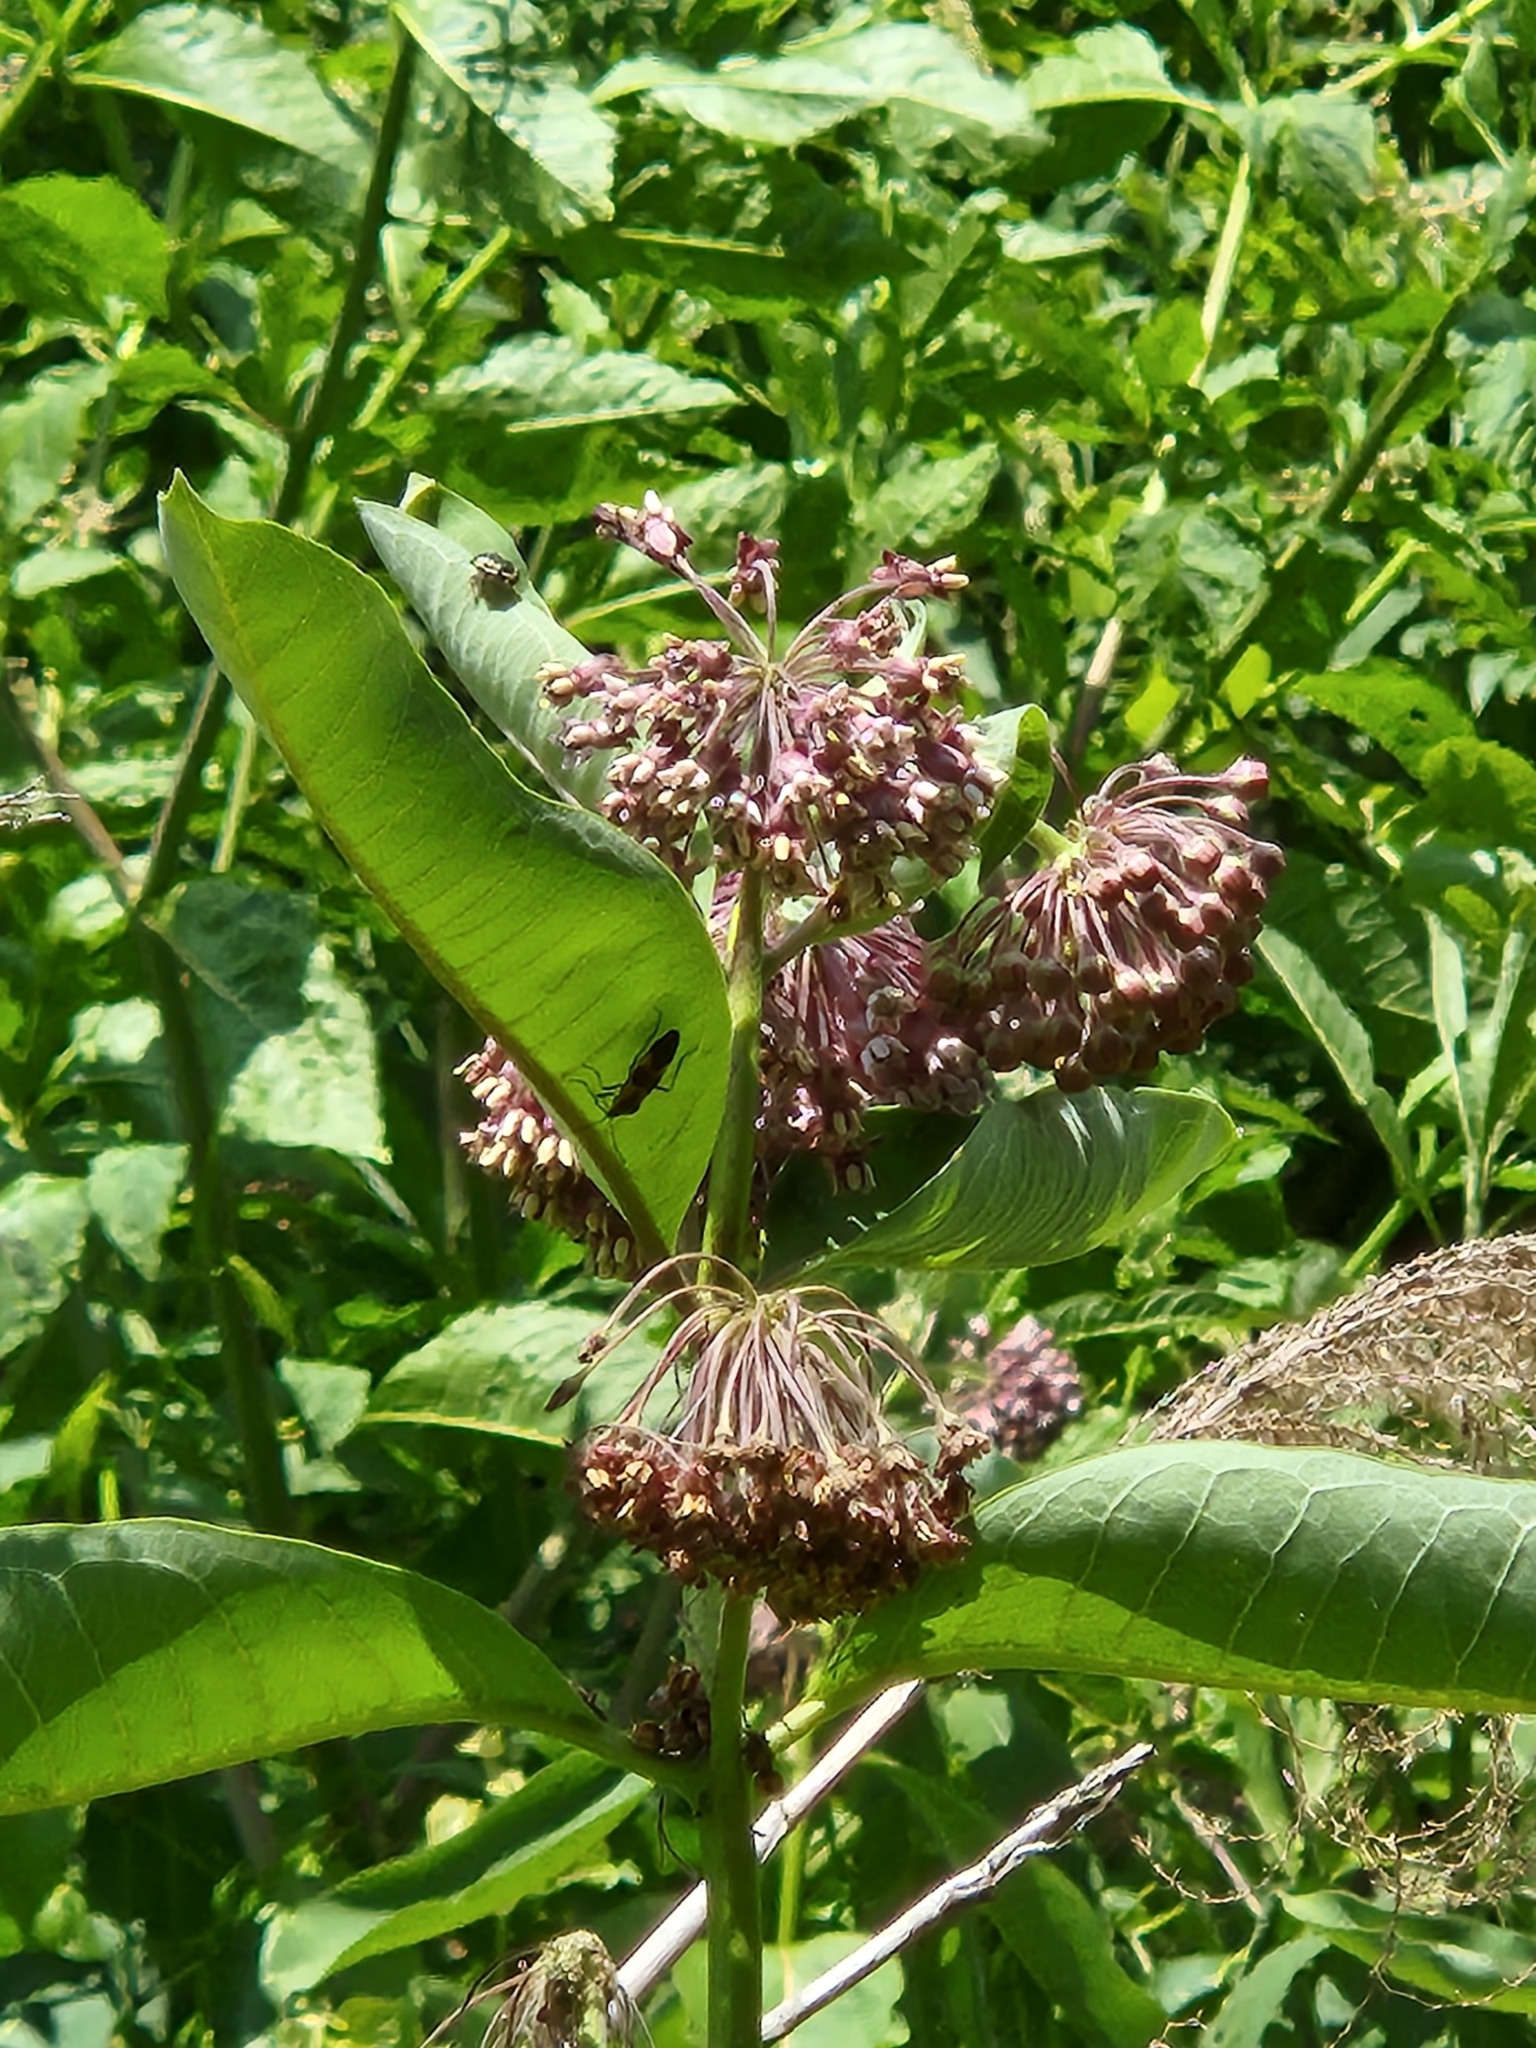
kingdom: Plantae
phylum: Tracheophyta
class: Magnoliopsida
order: Gentianales
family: Apocynaceae
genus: Asclepias
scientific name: Asclepias syriaca
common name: Common milkweed
